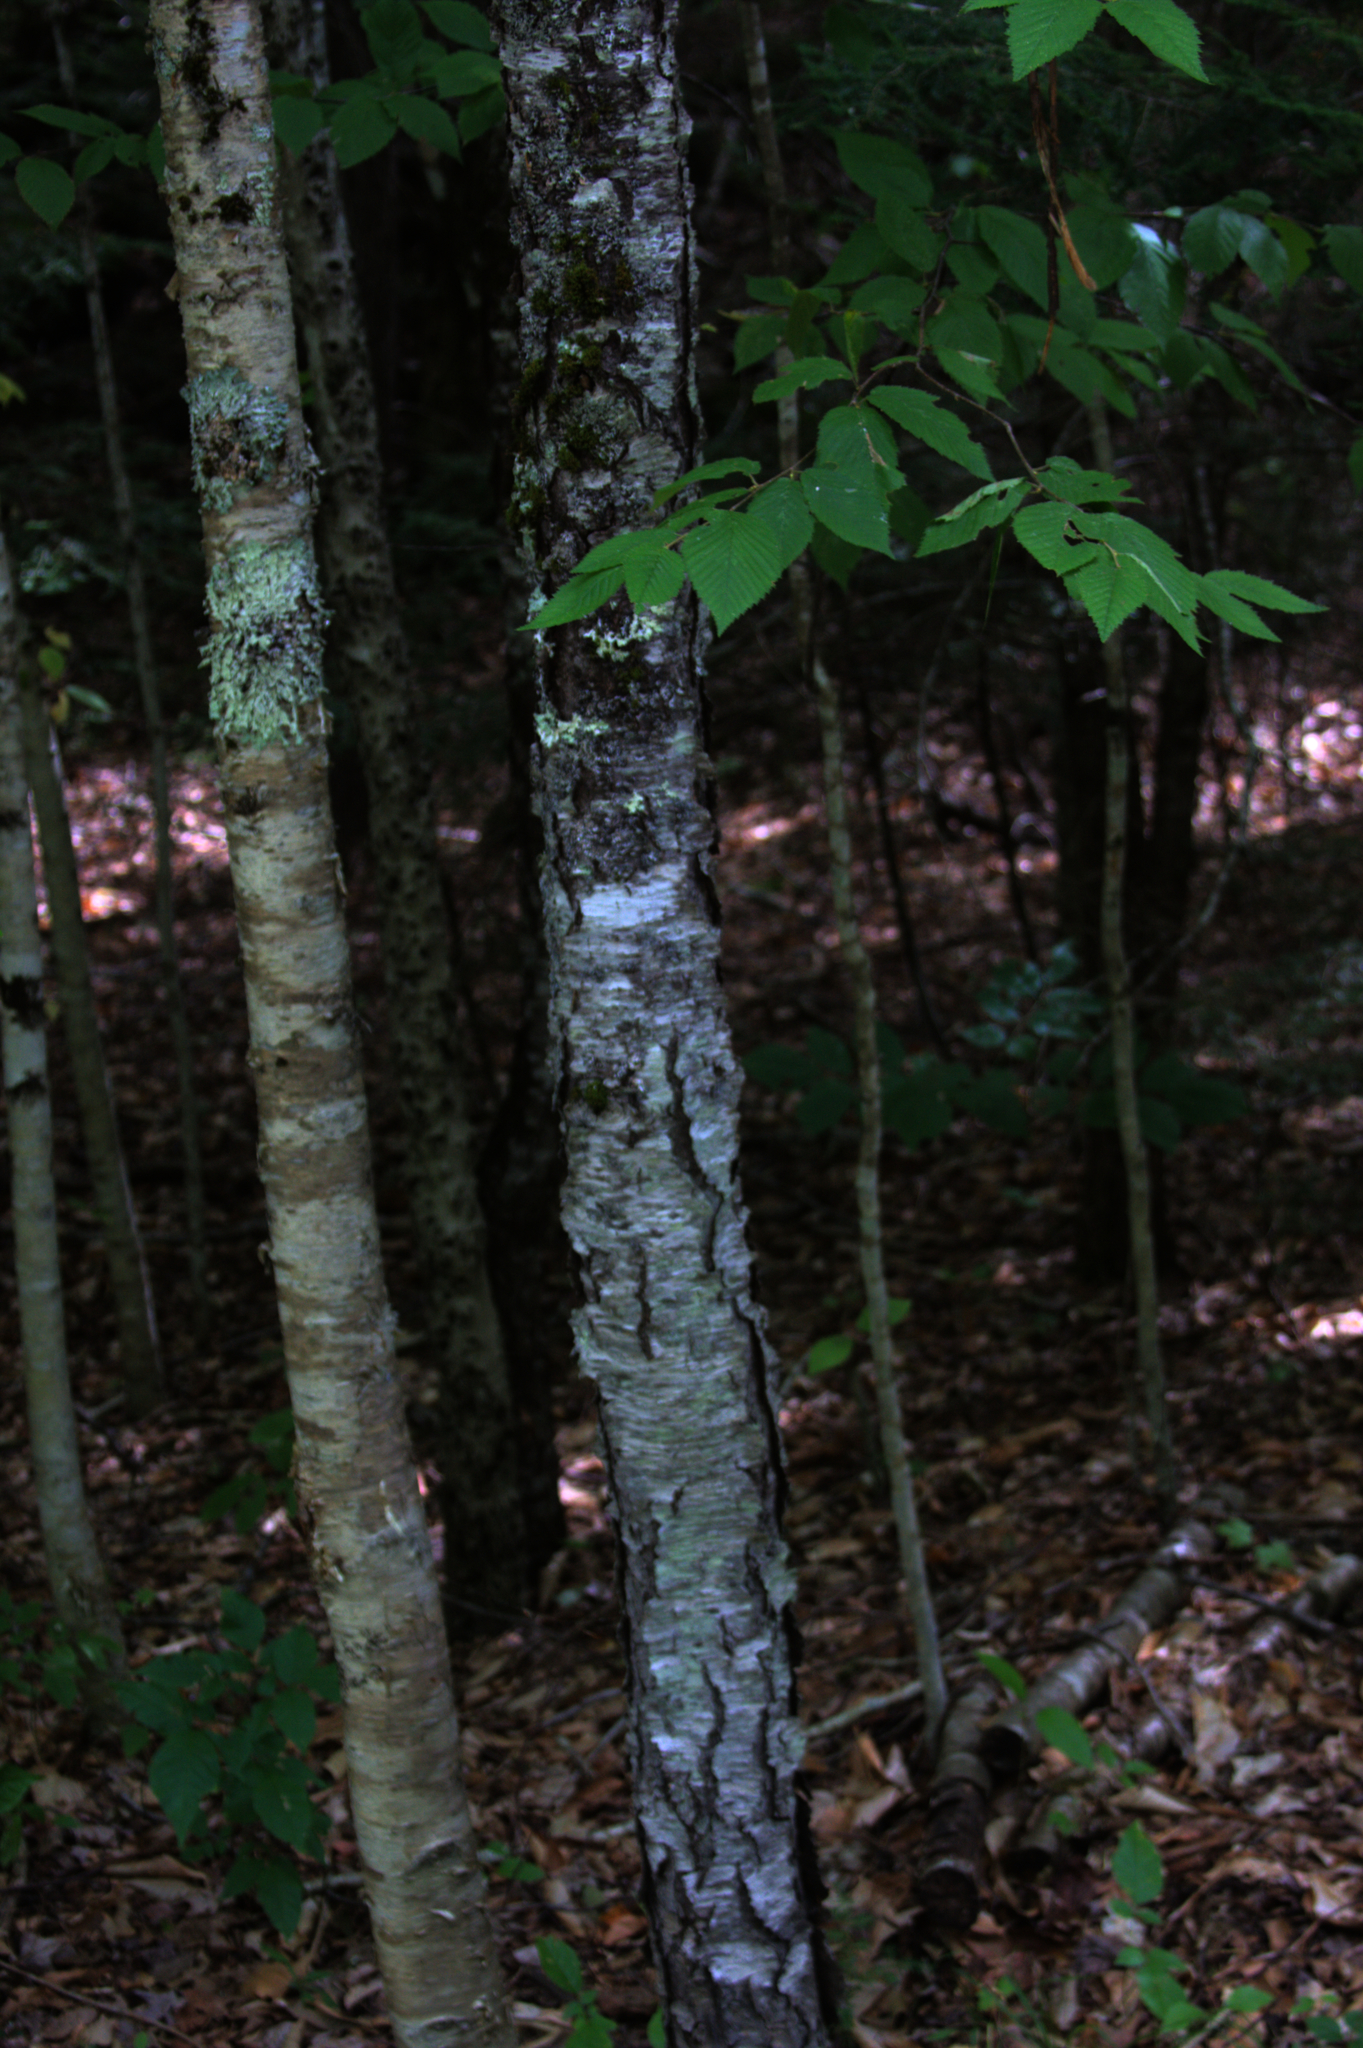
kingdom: Plantae
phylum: Tracheophyta
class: Magnoliopsida
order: Fagales
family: Betulaceae
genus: Betula
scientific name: Betula alleghaniensis
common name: Yellow birch
